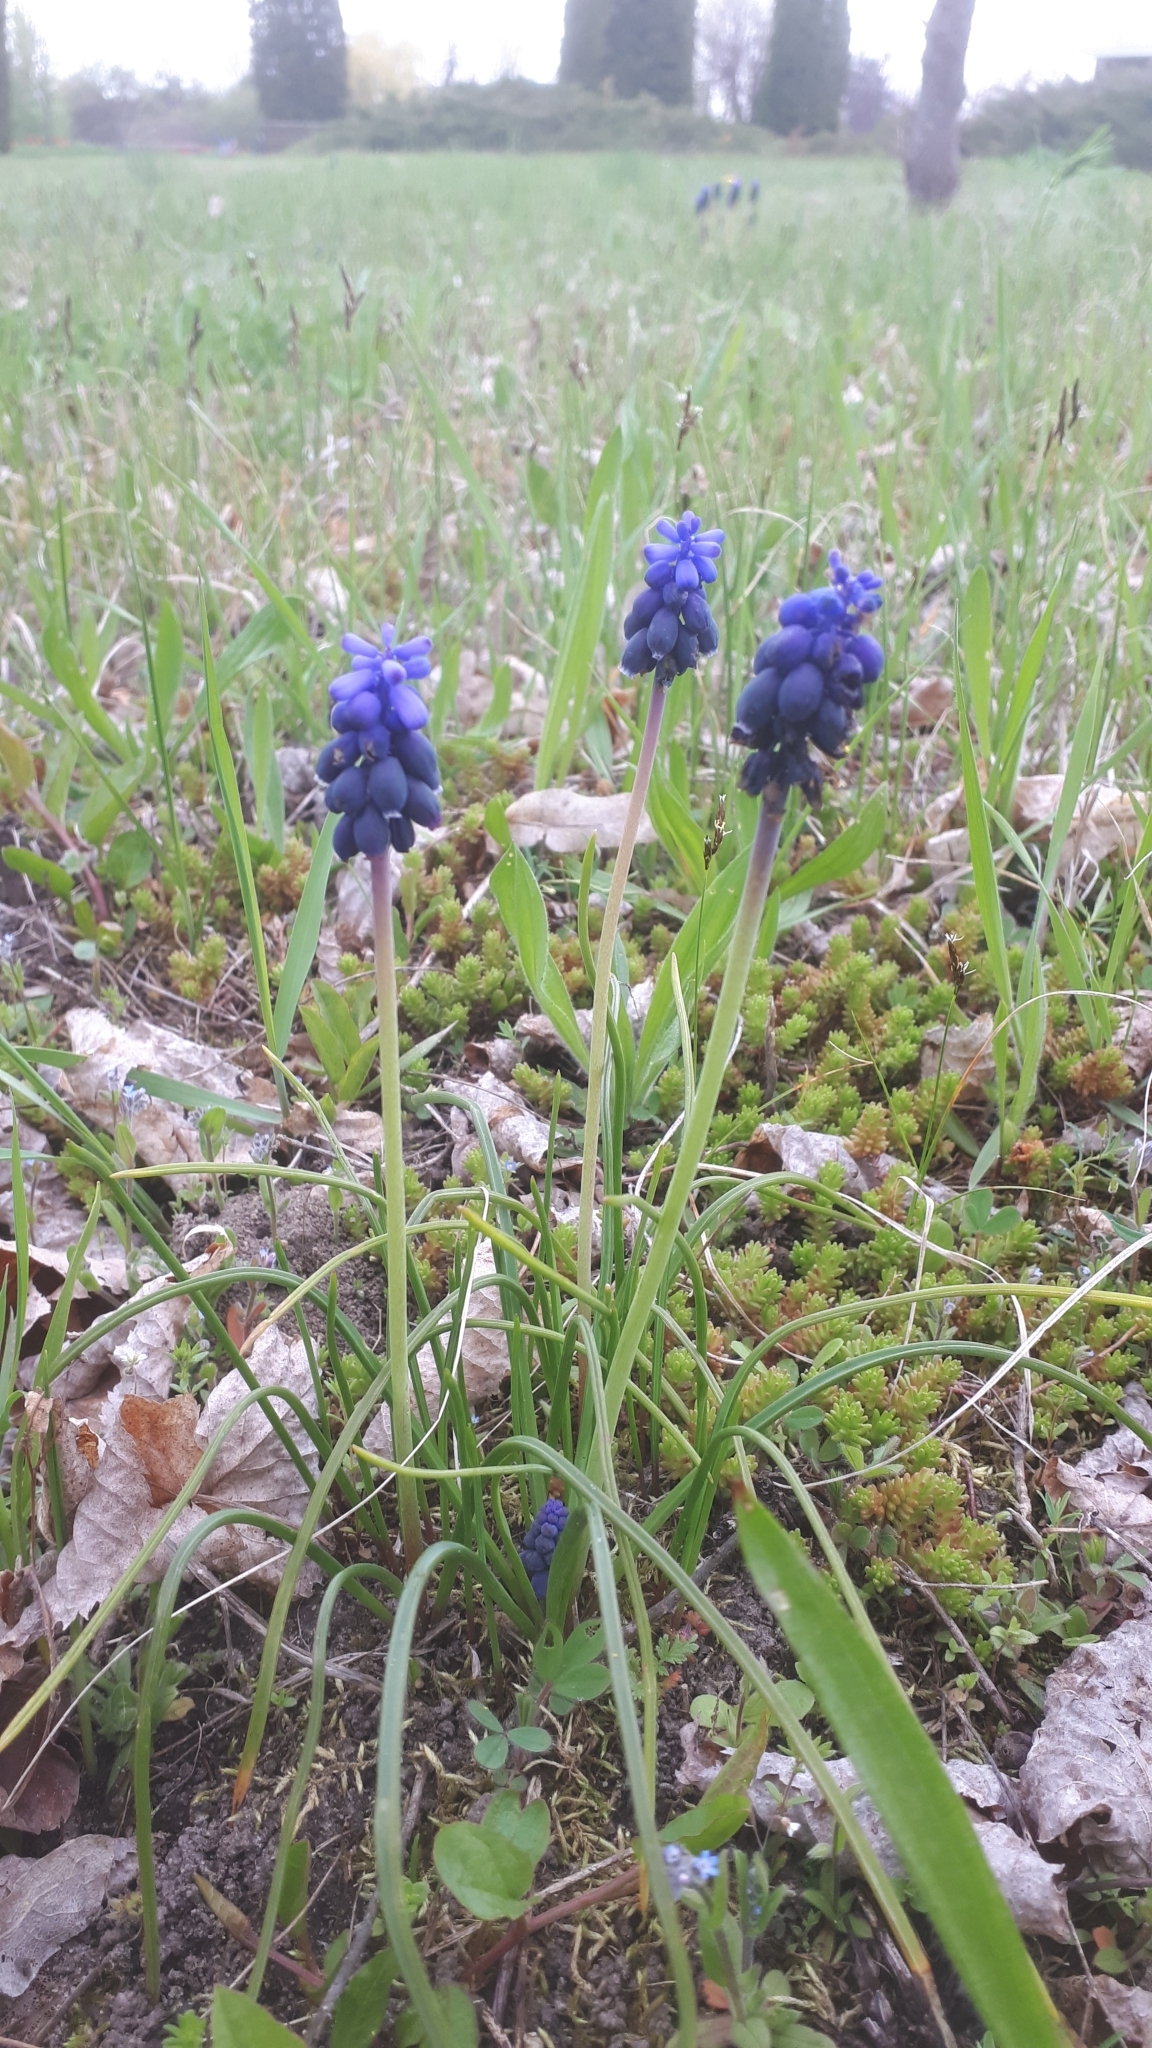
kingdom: Plantae
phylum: Tracheophyta
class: Liliopsida
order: Asparagales
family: Asparagaceae
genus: Muscari
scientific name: Muscari neglectum
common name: Grape-hyacinth
